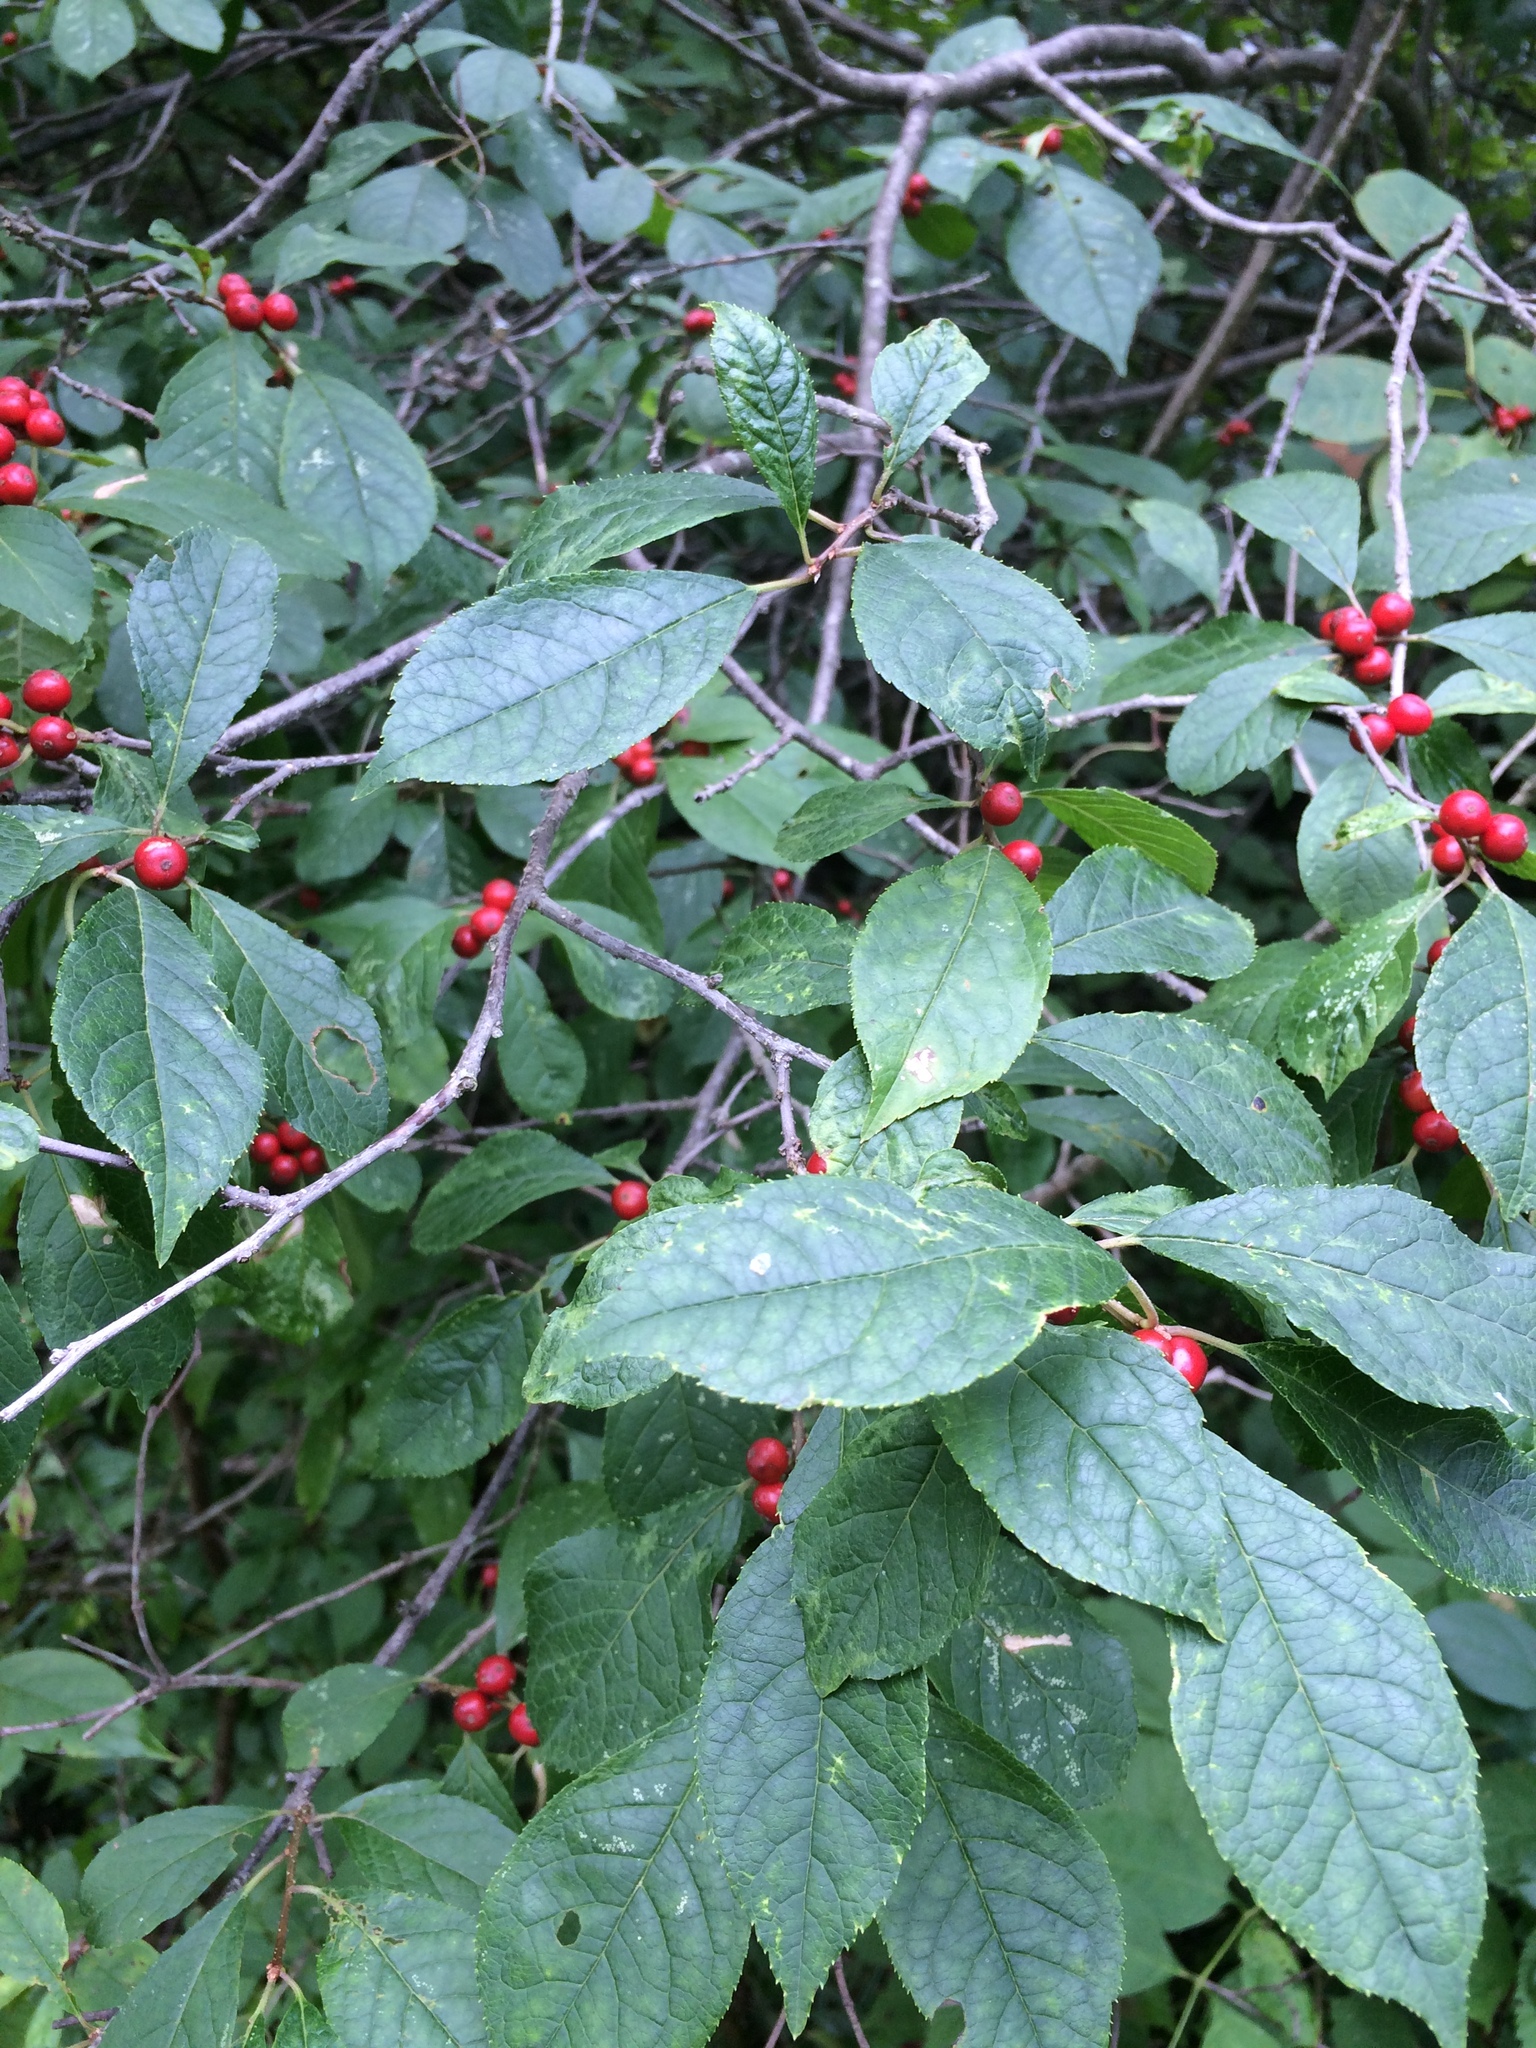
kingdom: Plantae
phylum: Tracheophyta
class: Magnoliopsida
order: Aquifoliales
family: Aquifoliaceae
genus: Ilex
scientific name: Ilex verticillata
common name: Virginia winterberry
